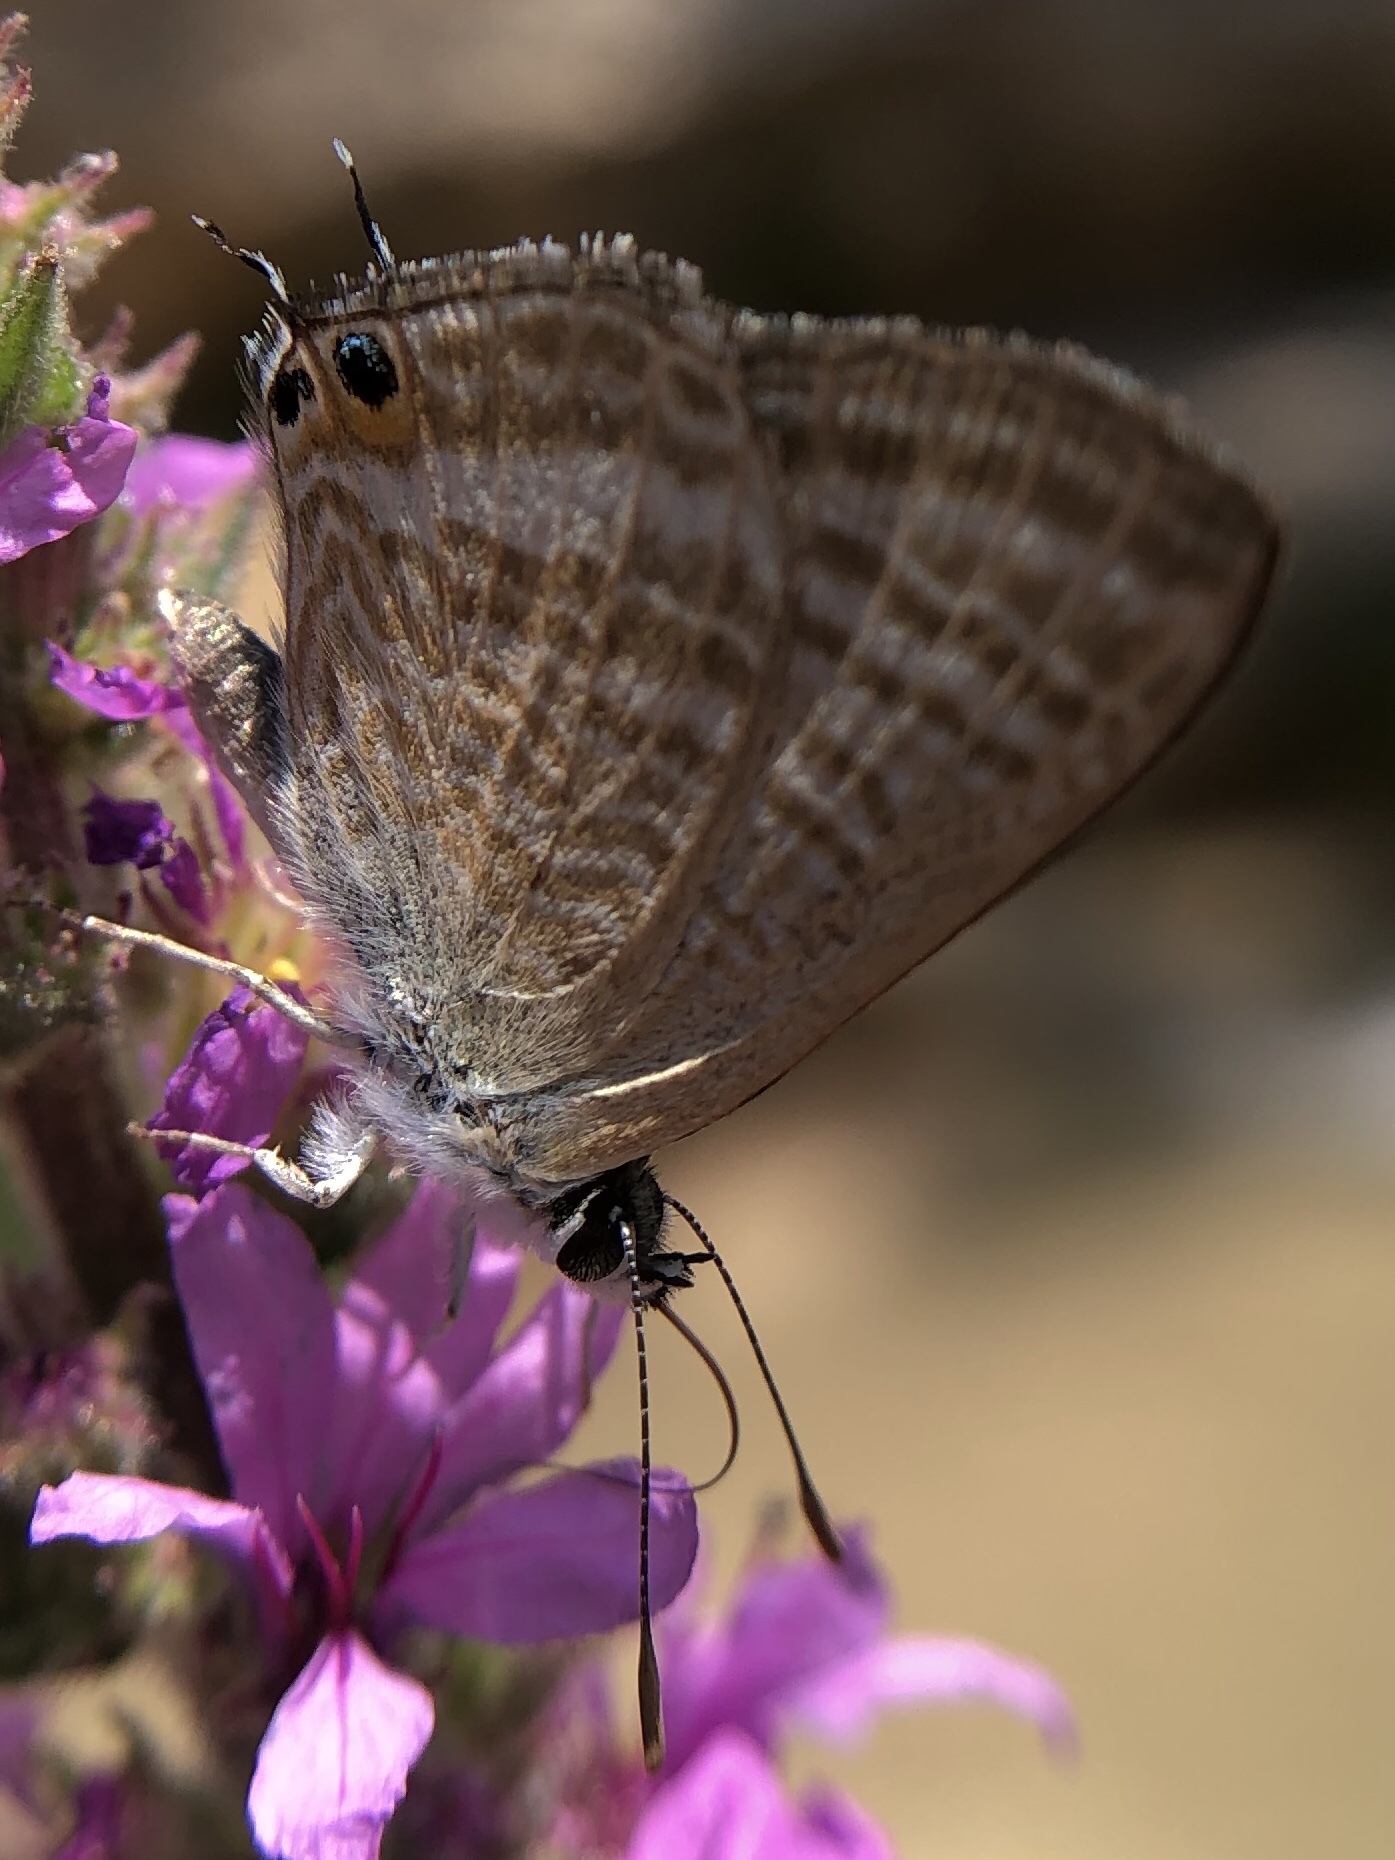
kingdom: Animalia
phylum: Arthropoda
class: Insecta
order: Lepidoptera
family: Lycaenidae
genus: Lampides
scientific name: Lampides boeticus
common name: Long-tailed blue
